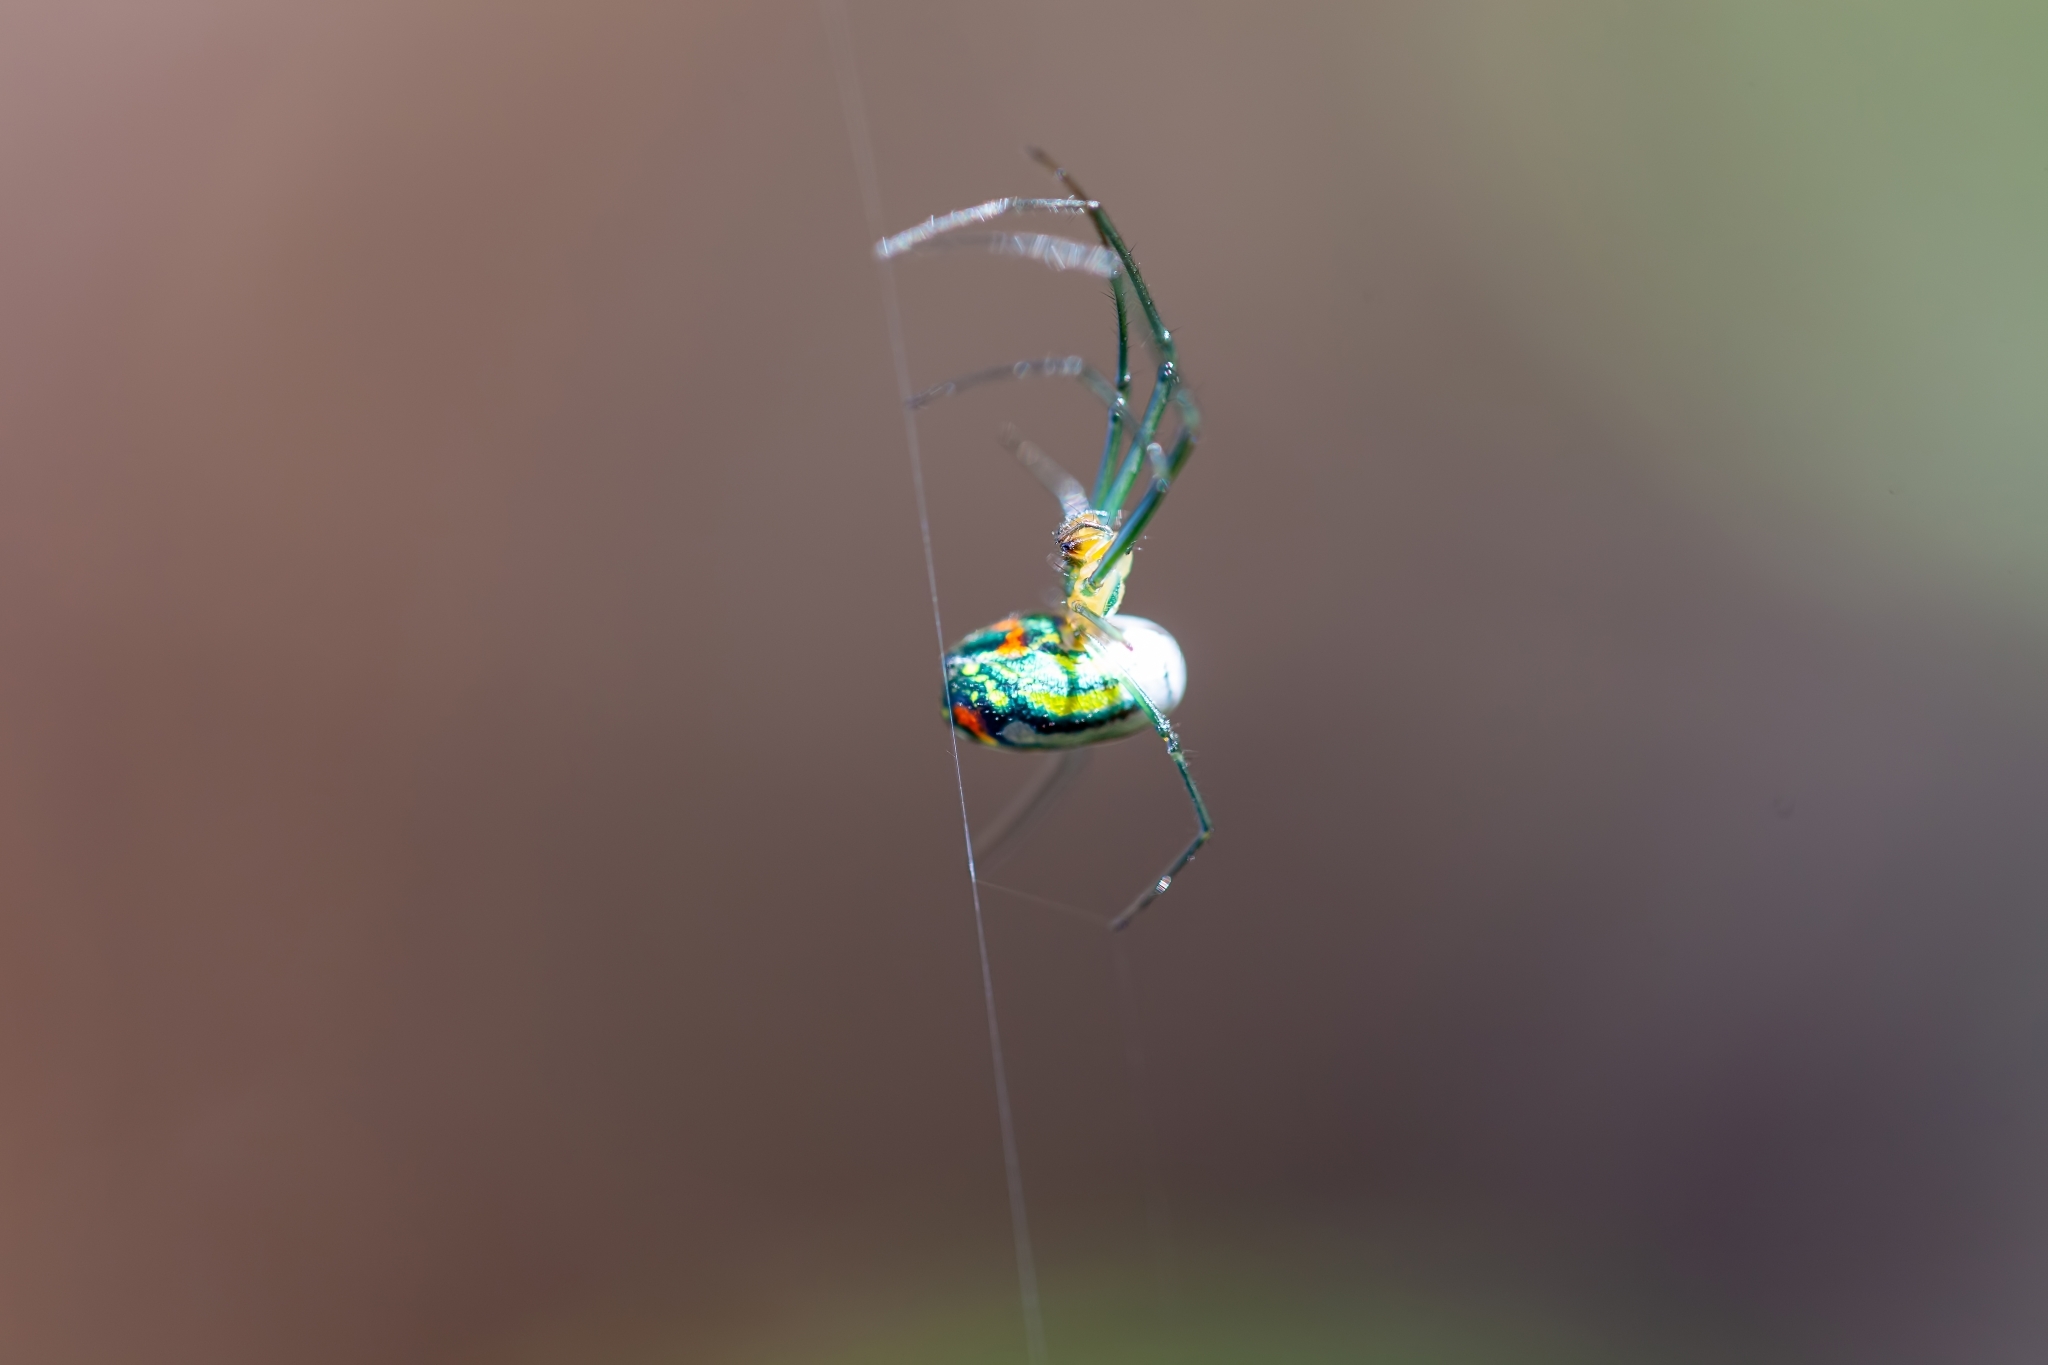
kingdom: Animalia
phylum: Arthropoda
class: Arachnida
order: Araneae
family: Tetragnathidae
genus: Leucauge
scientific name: Leucauge argyrobapta
